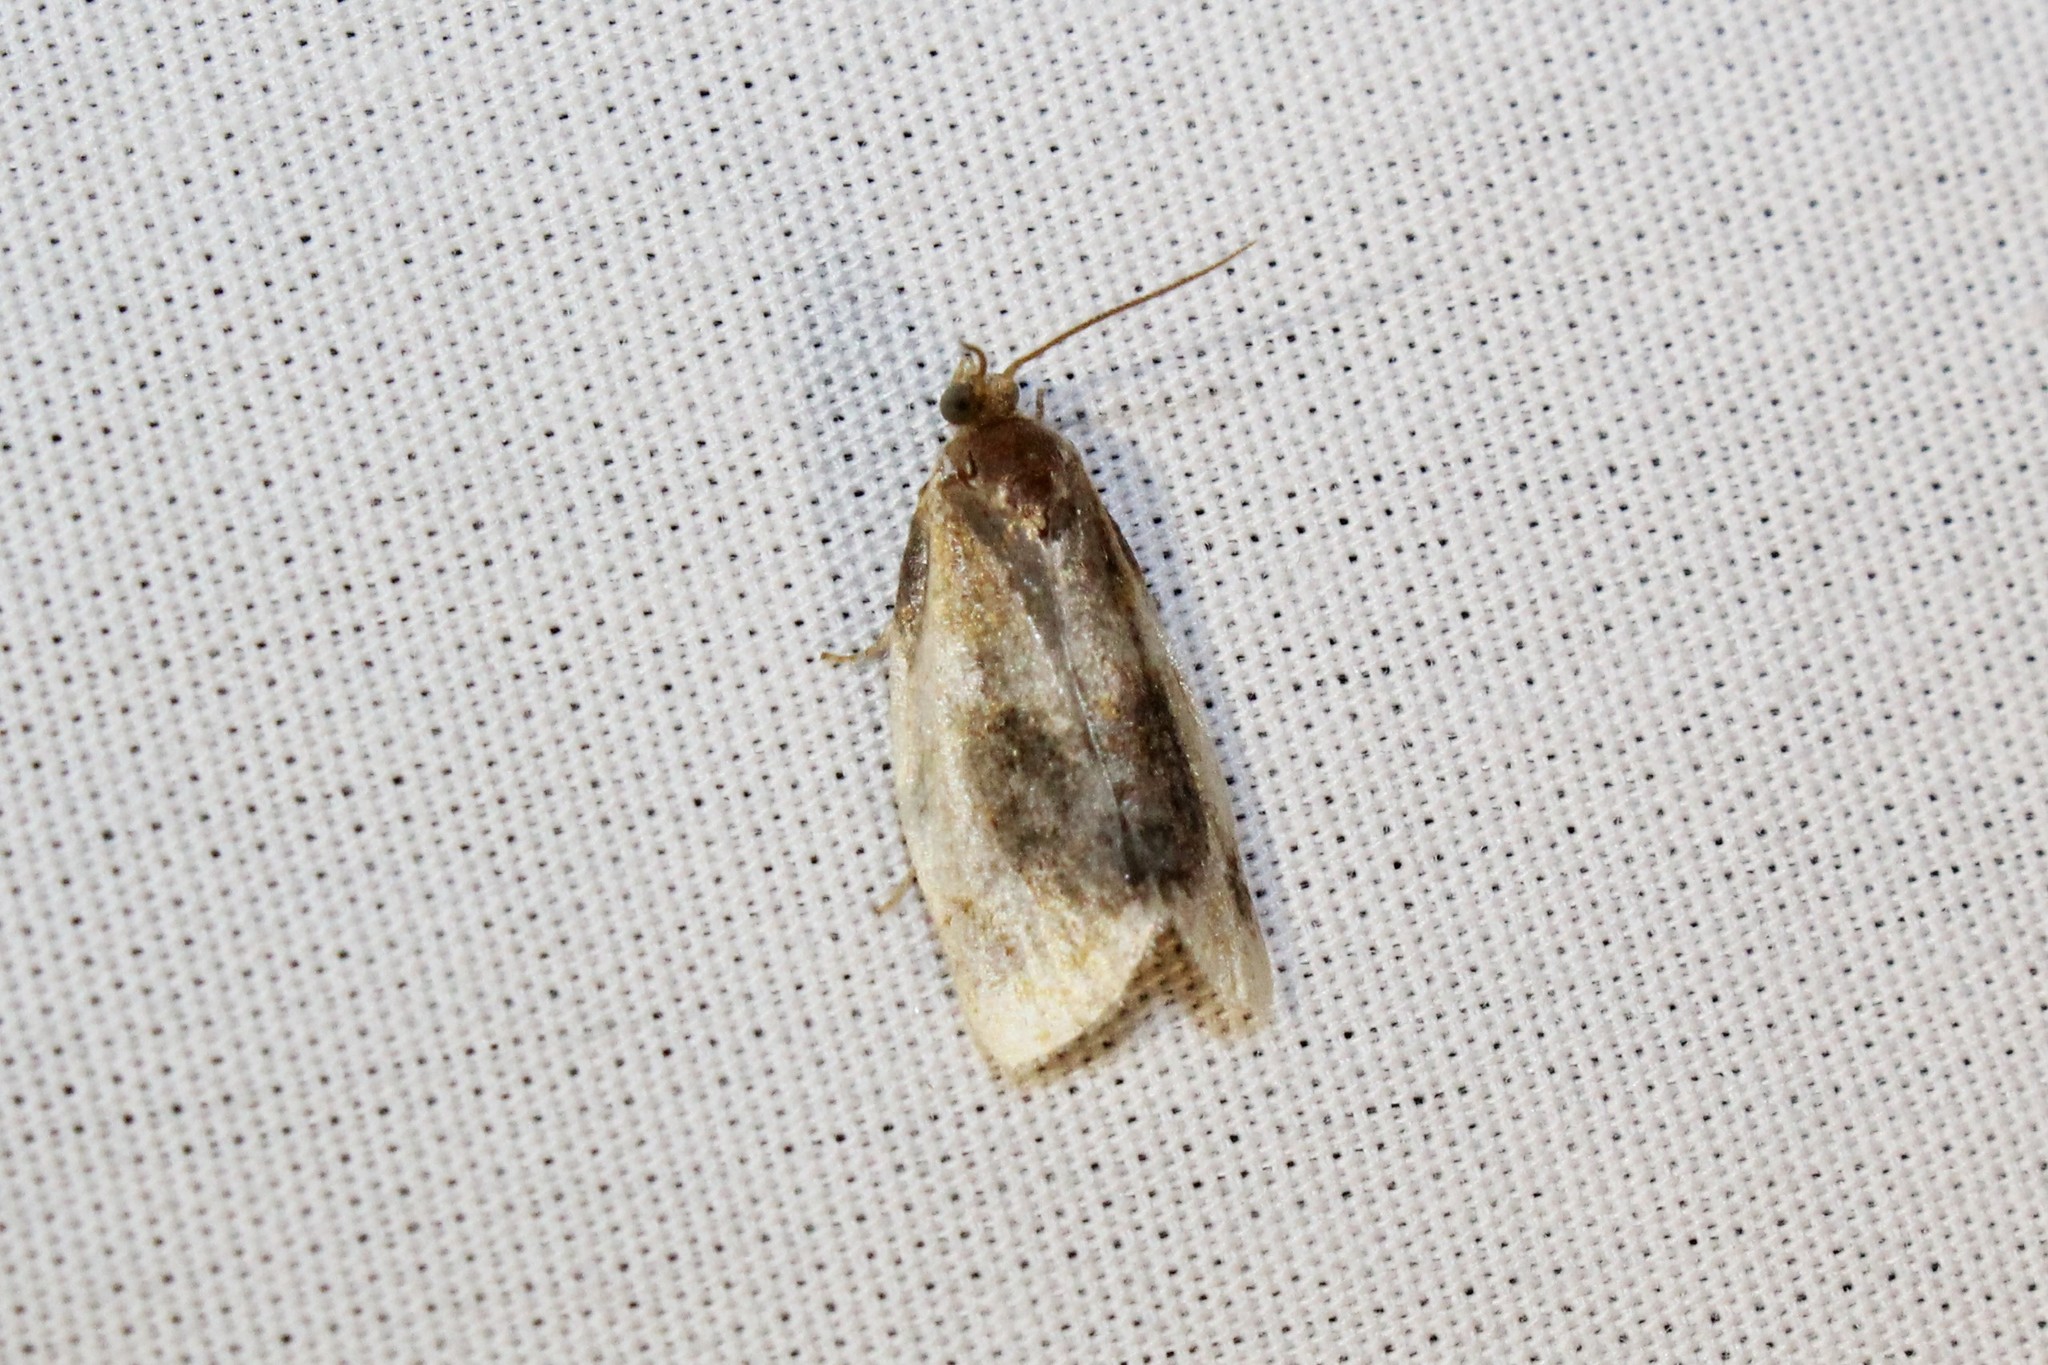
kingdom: Animalia
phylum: Arthropoda
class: Insecta
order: Lepidoptera
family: Tortricidae
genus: Clepsis
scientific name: Clepsis melaleucanus
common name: American apple tortrix
